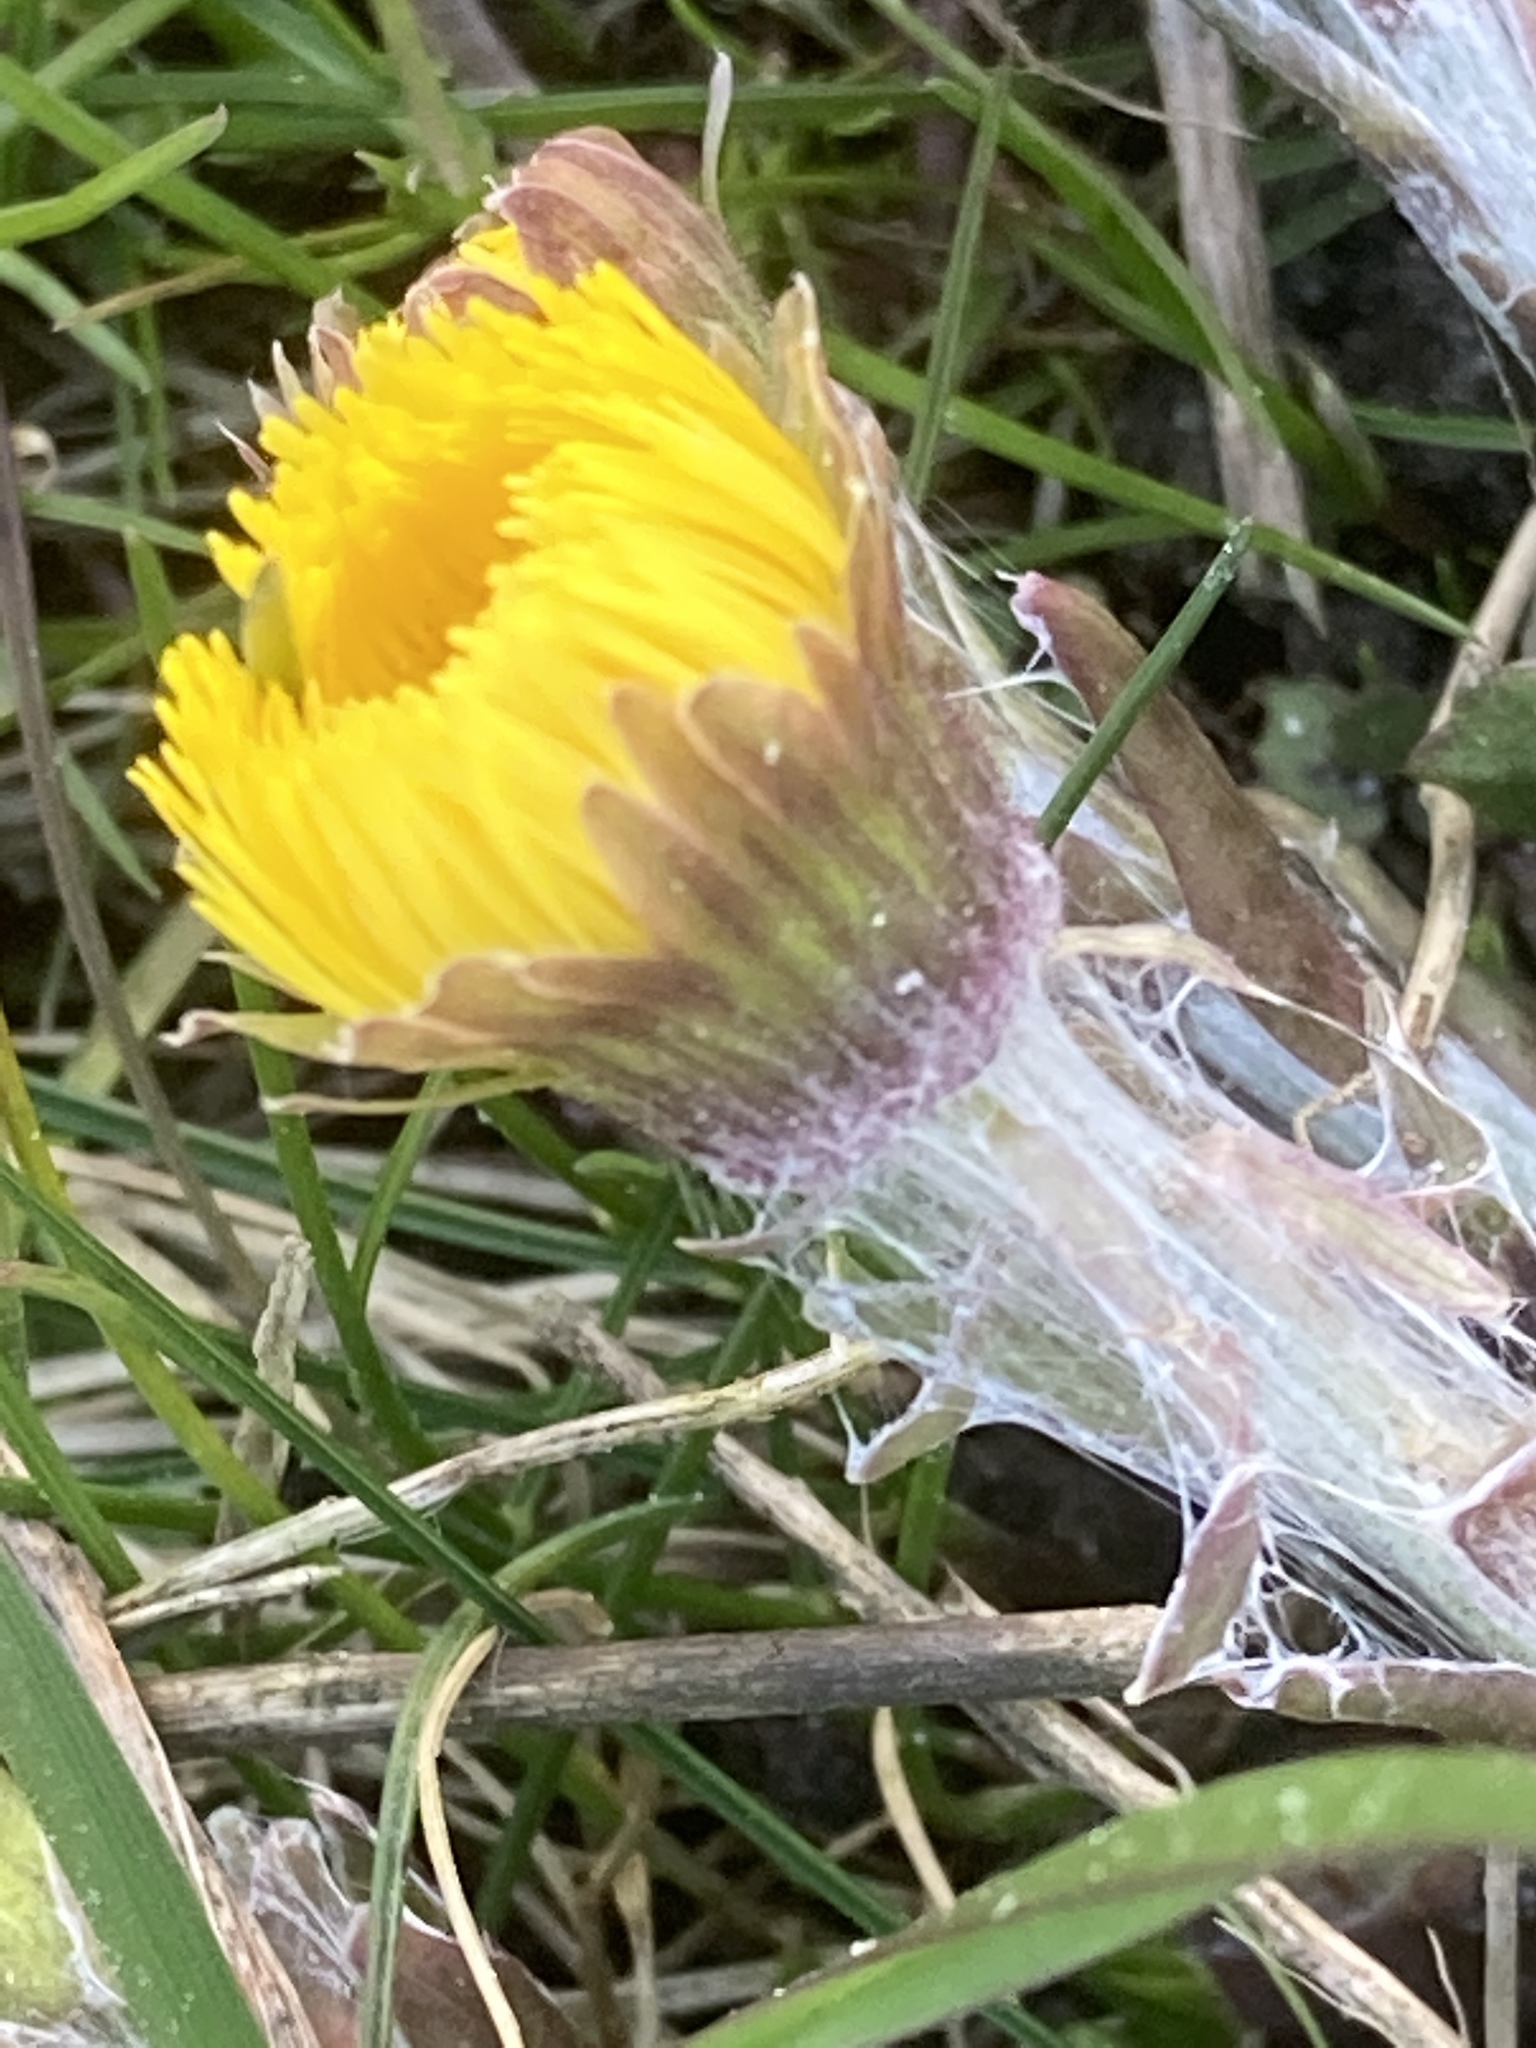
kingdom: Plantae
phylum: Tracheophyta
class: Magnoliopsida
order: Asterales
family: Asteraceae
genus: Tussilago
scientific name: Tussilago farfara
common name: Coltsfoot
